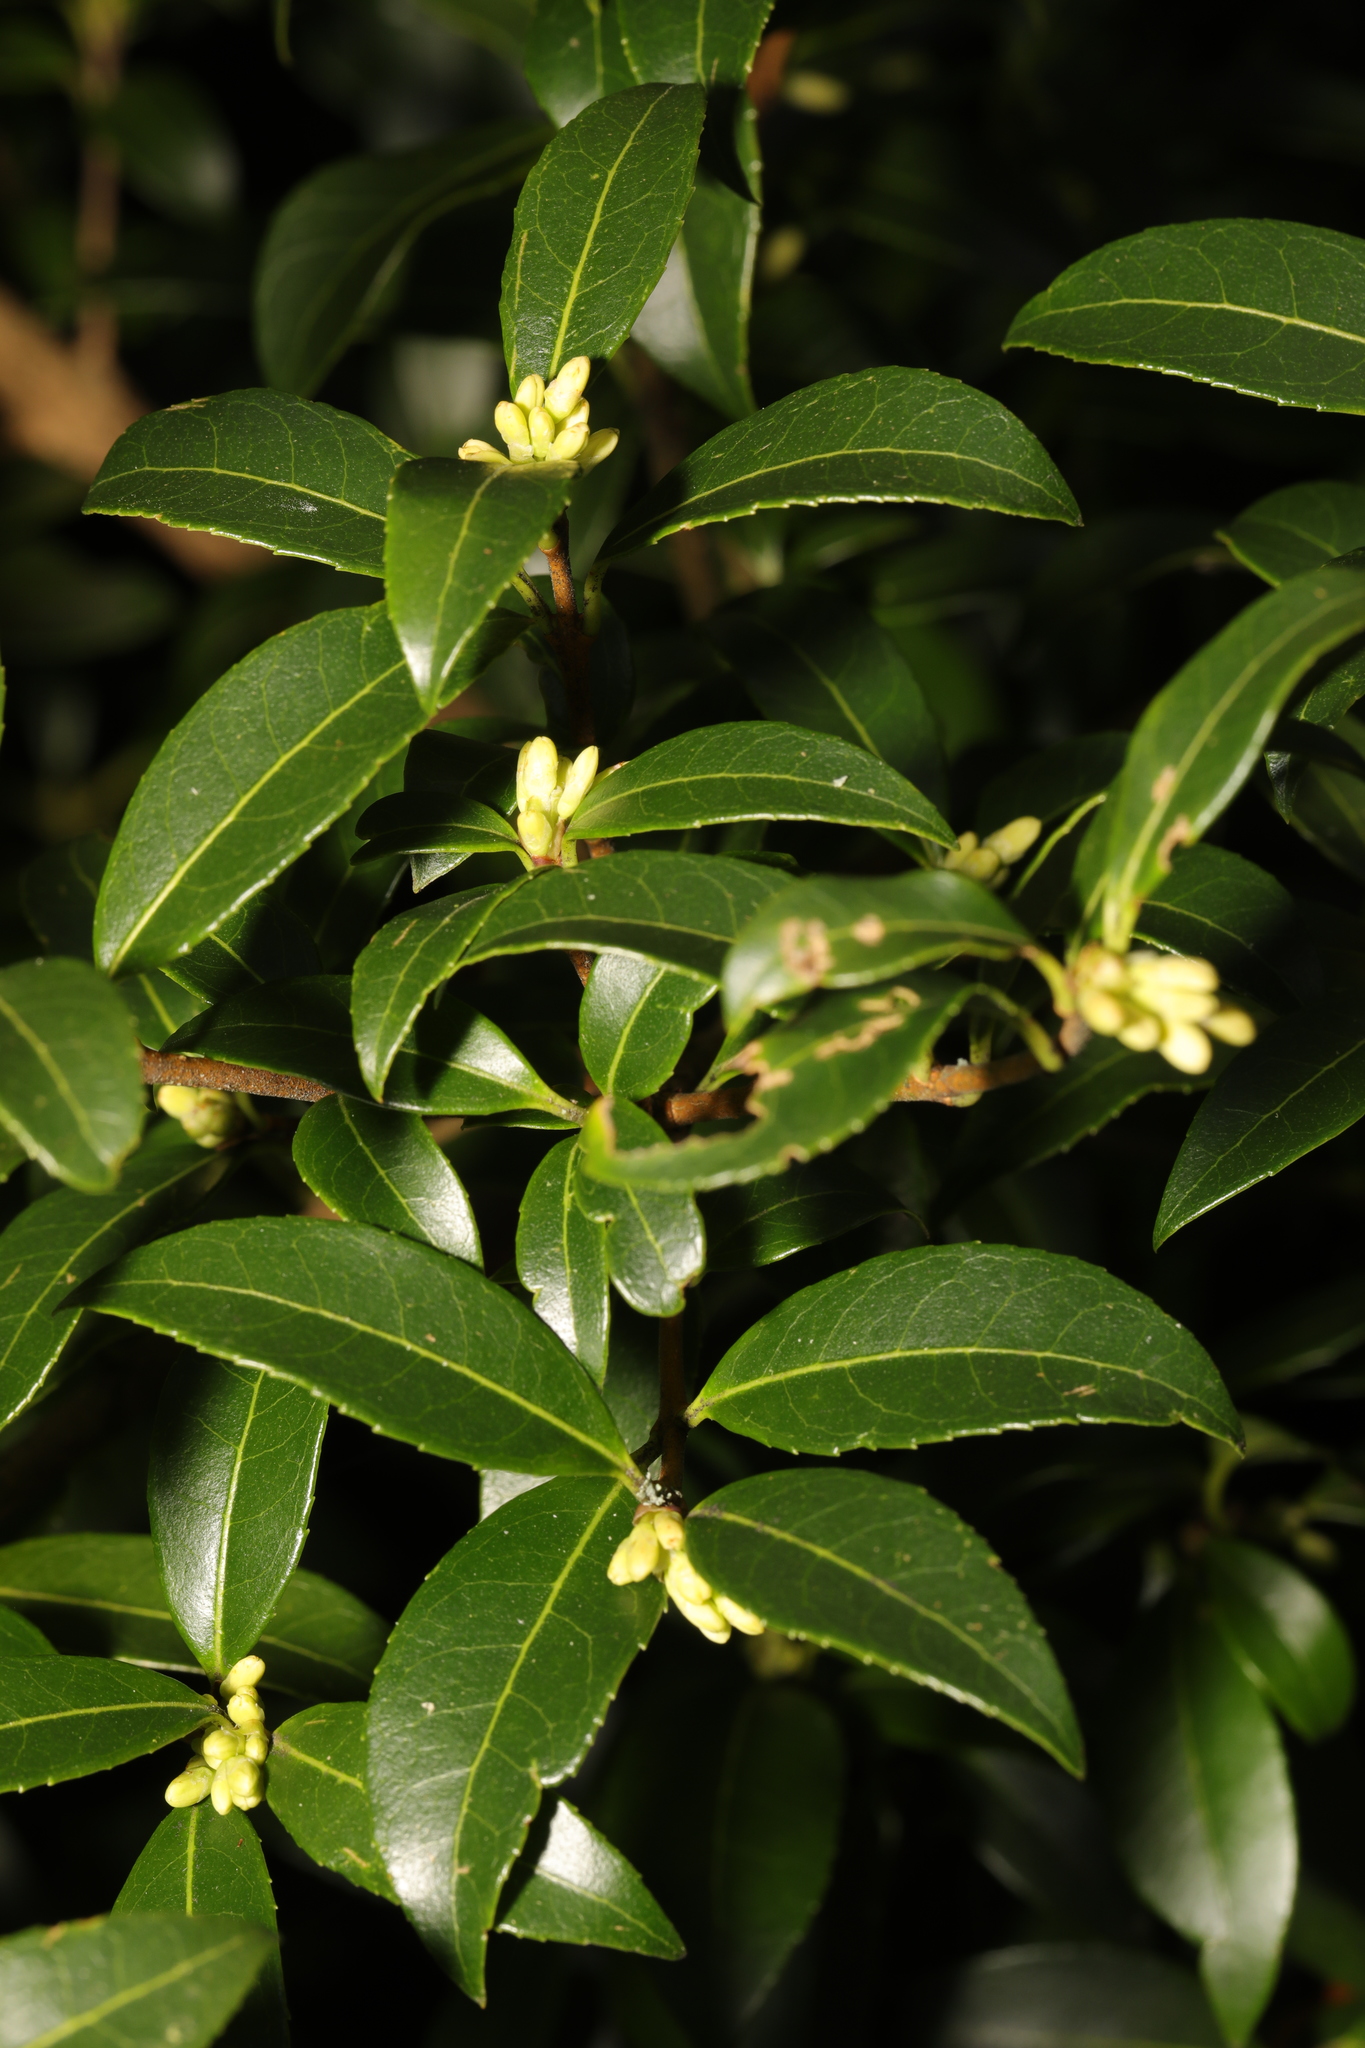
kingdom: Plantae
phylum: Tracheophyta
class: Magnoliopsida
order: Lamiales
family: Oleaceae
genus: Osmanthus
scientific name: Osmanthus burkwoodii
